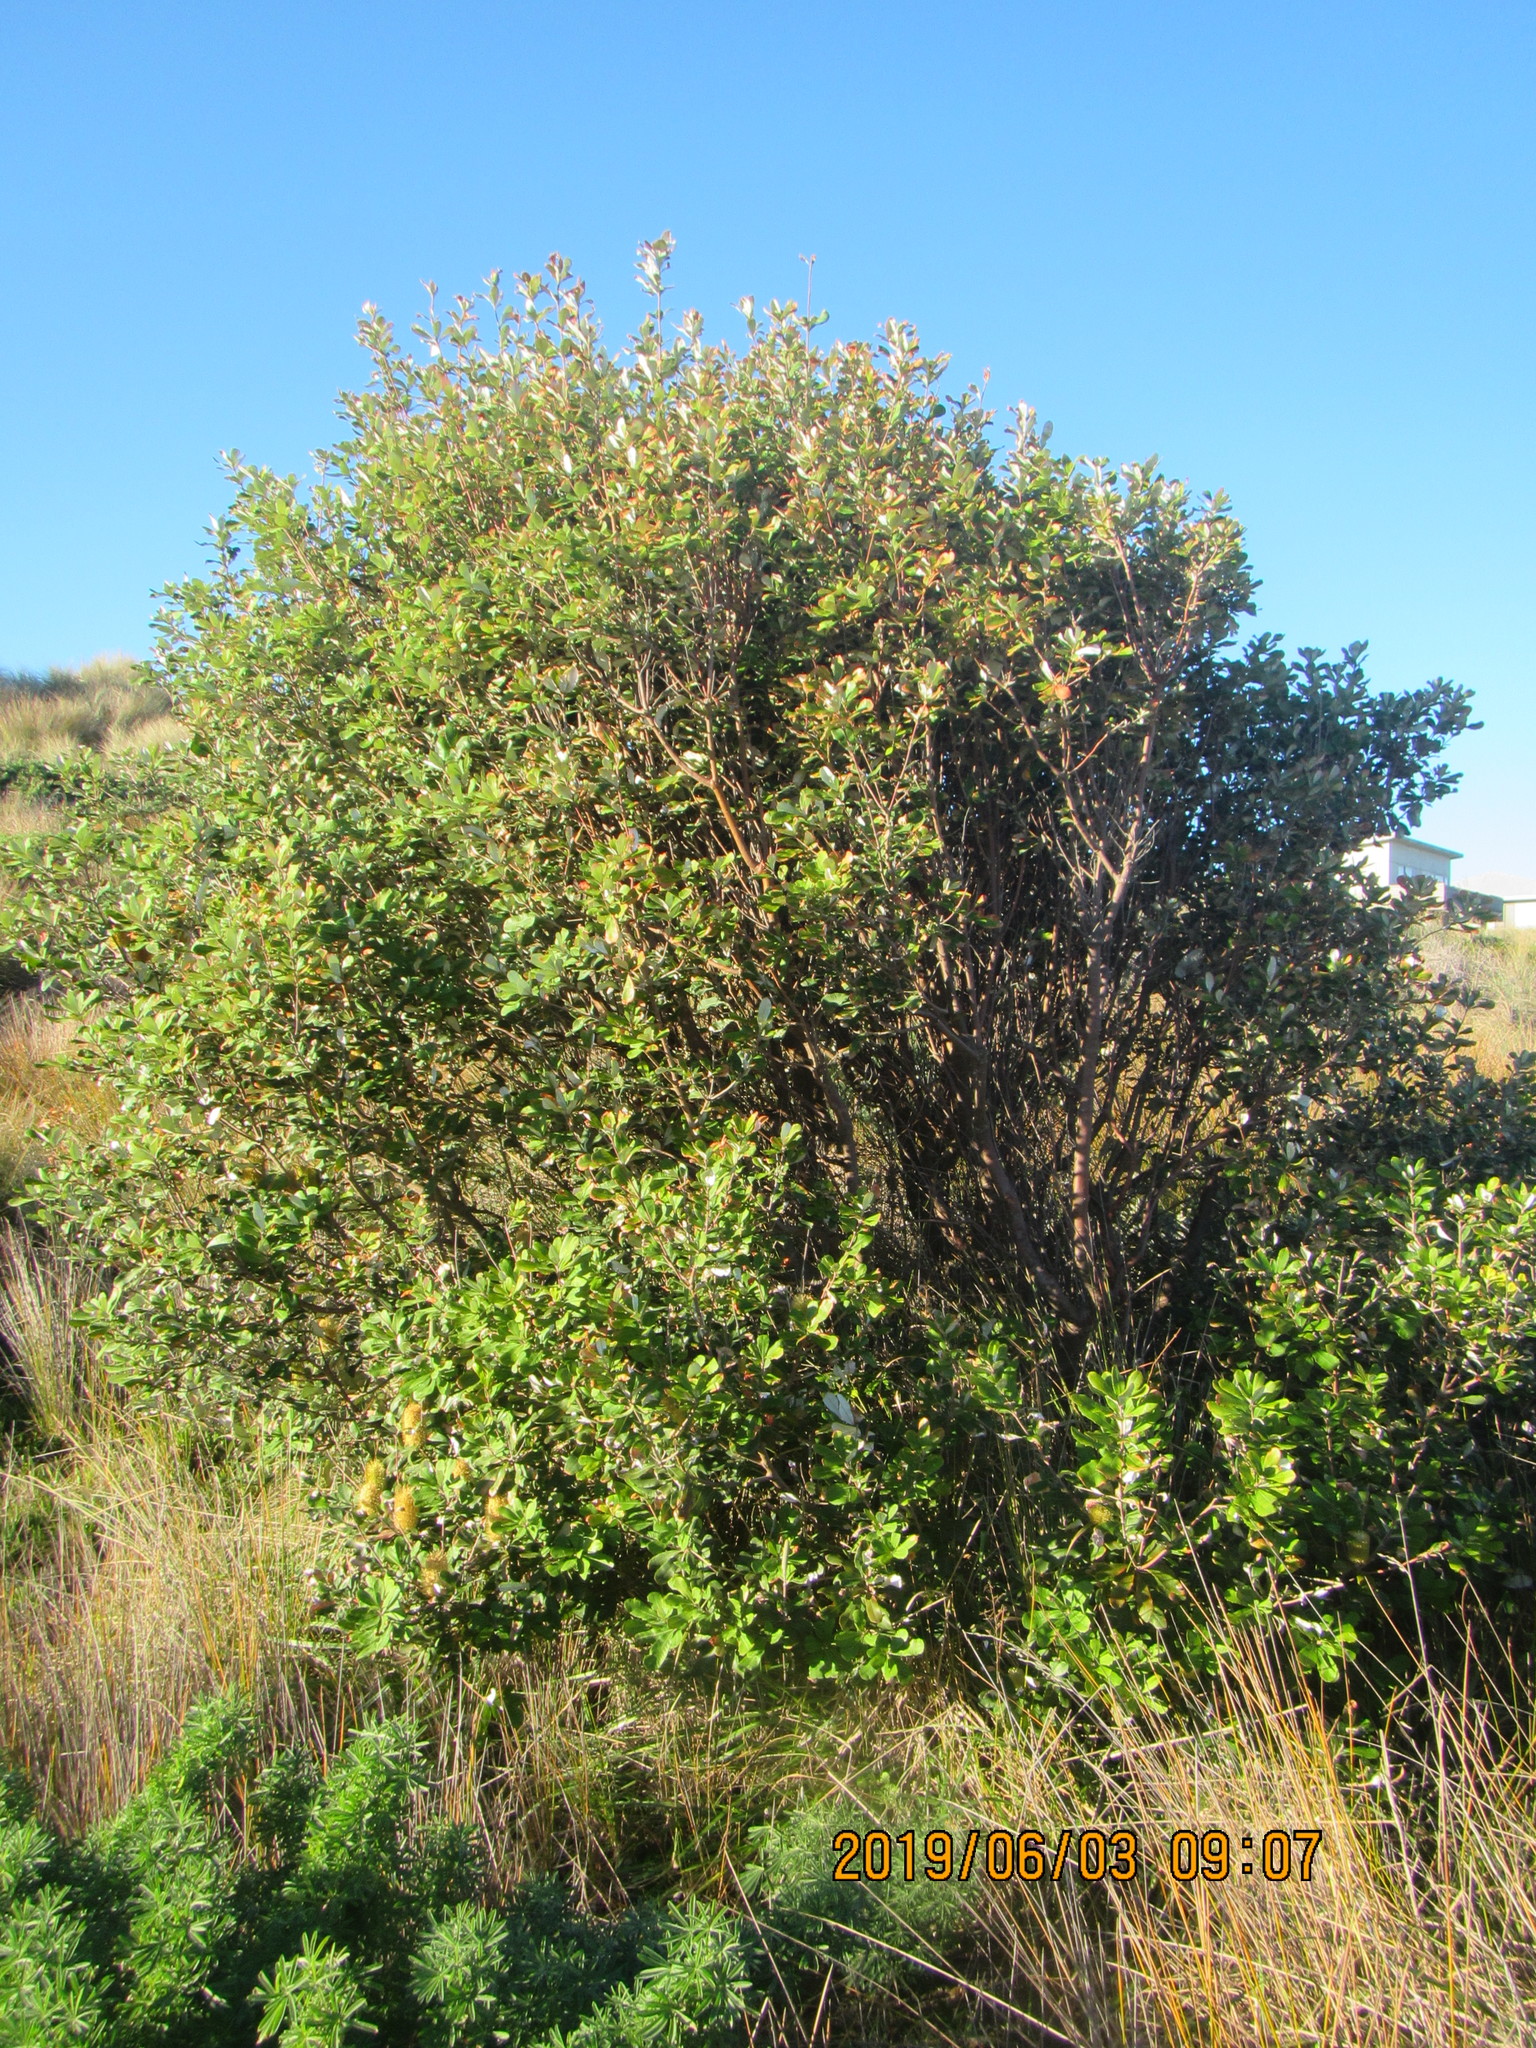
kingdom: Plantae
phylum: Tracheophyta
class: Magnoliopsida
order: Proteales
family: Proteaceae
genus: Banksia
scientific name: Banksia integrifolia
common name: White-honeysuckle
